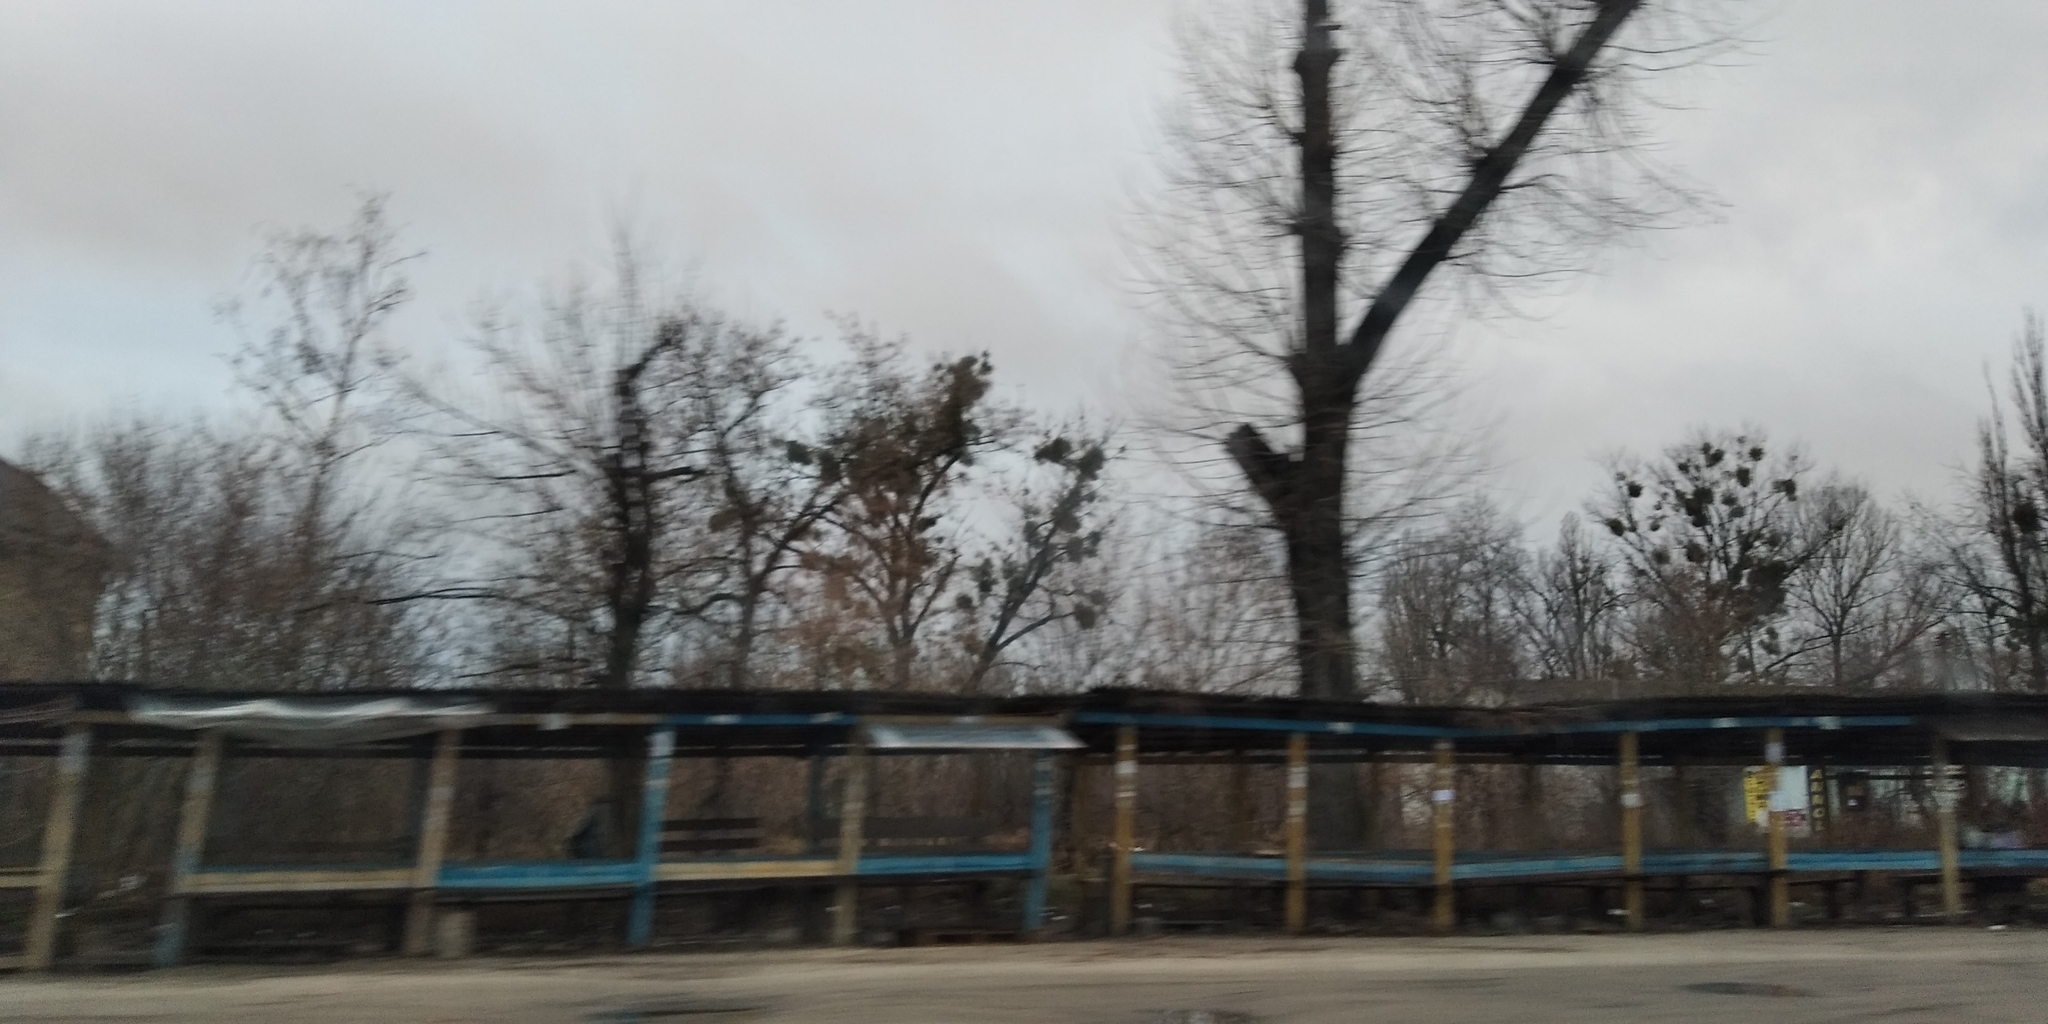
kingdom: Plantae
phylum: Tracheophyta
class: Magnoliopsida
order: Santalales
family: Viscaceae
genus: Viscum
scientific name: Viscum album
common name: Mistletoe
